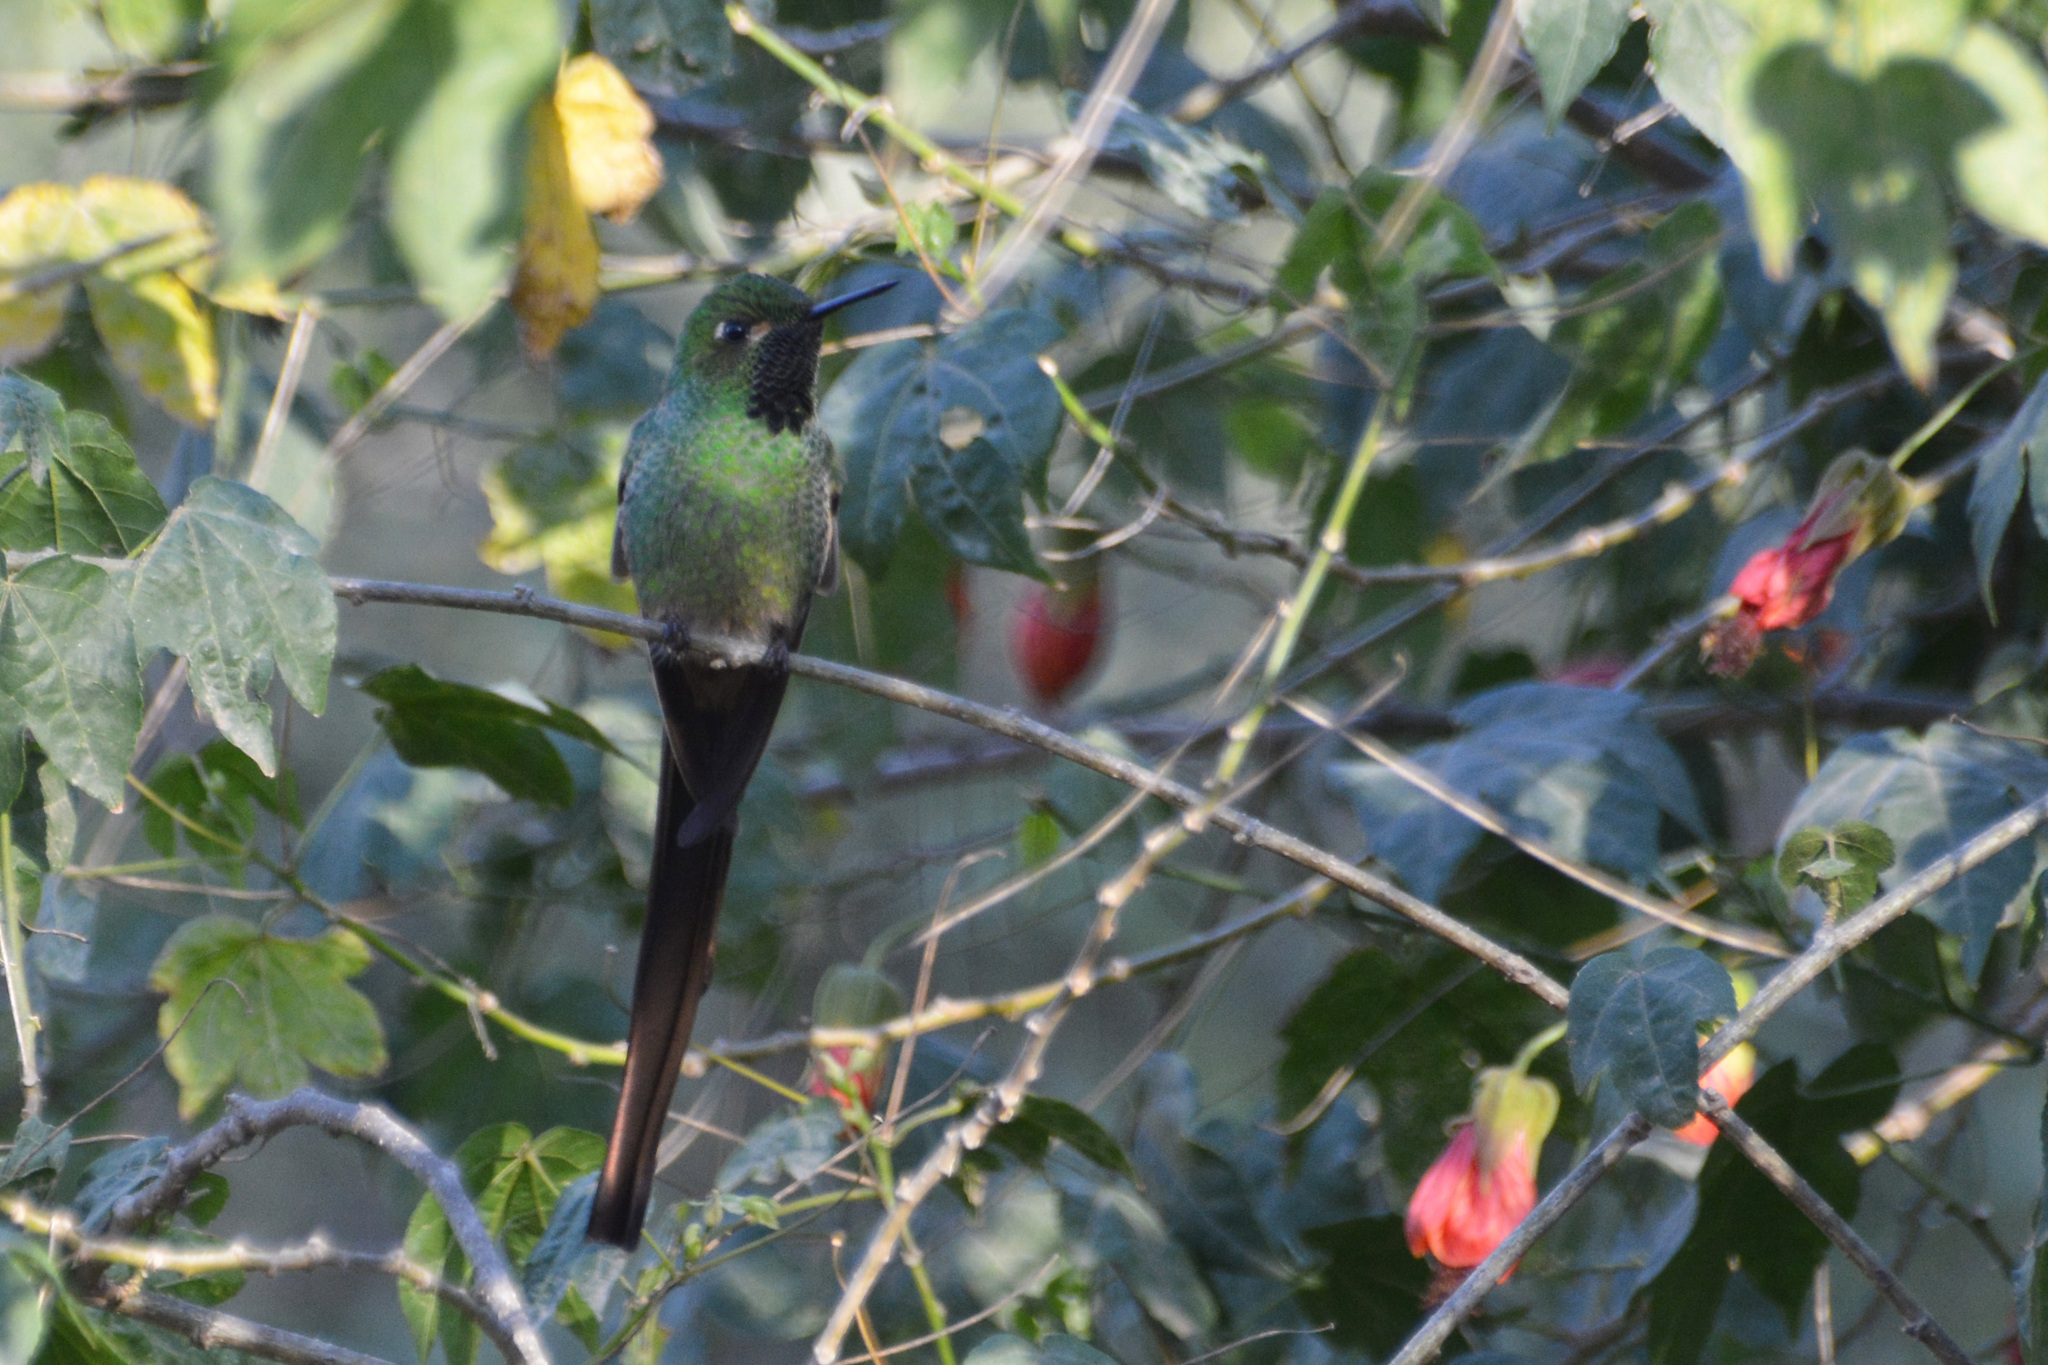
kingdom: Animalia
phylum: Chordata
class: Aves
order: Apodiformes
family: Trochilidae
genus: Sappho
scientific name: Sappho sparganurus
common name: Red-tailed comet
